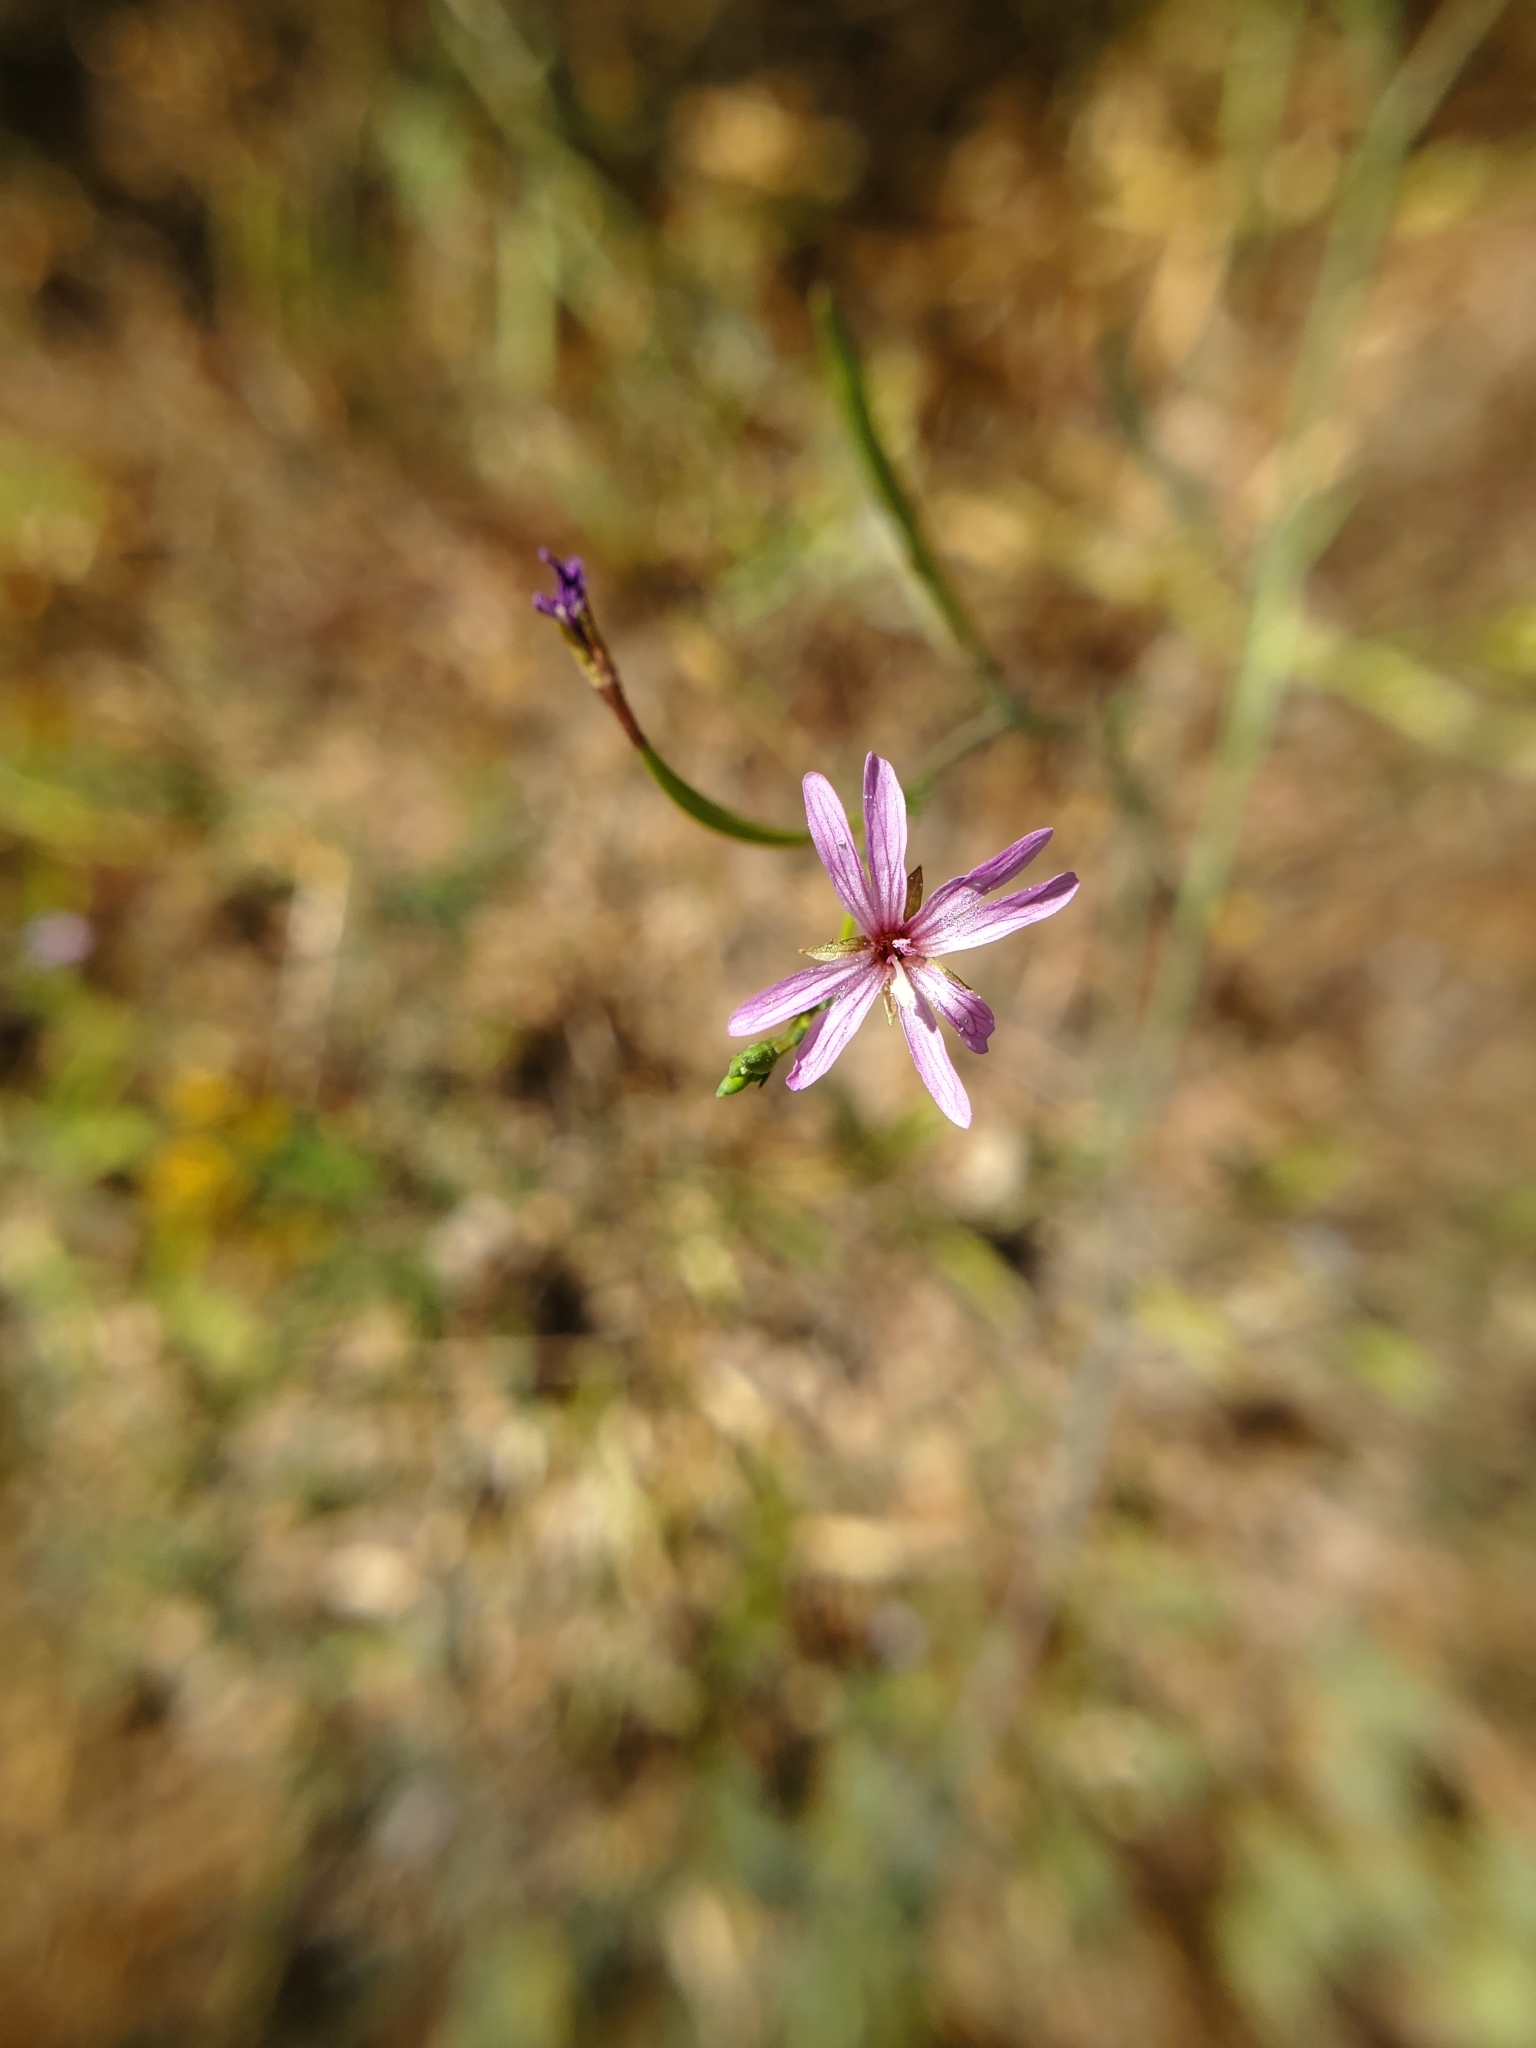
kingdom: Plantae
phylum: Tracheophyta
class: Magnoliopsida
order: Myrtales
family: Onagraceae
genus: Epilobium
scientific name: Epilobium brachycarpum
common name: Annual willowherb
